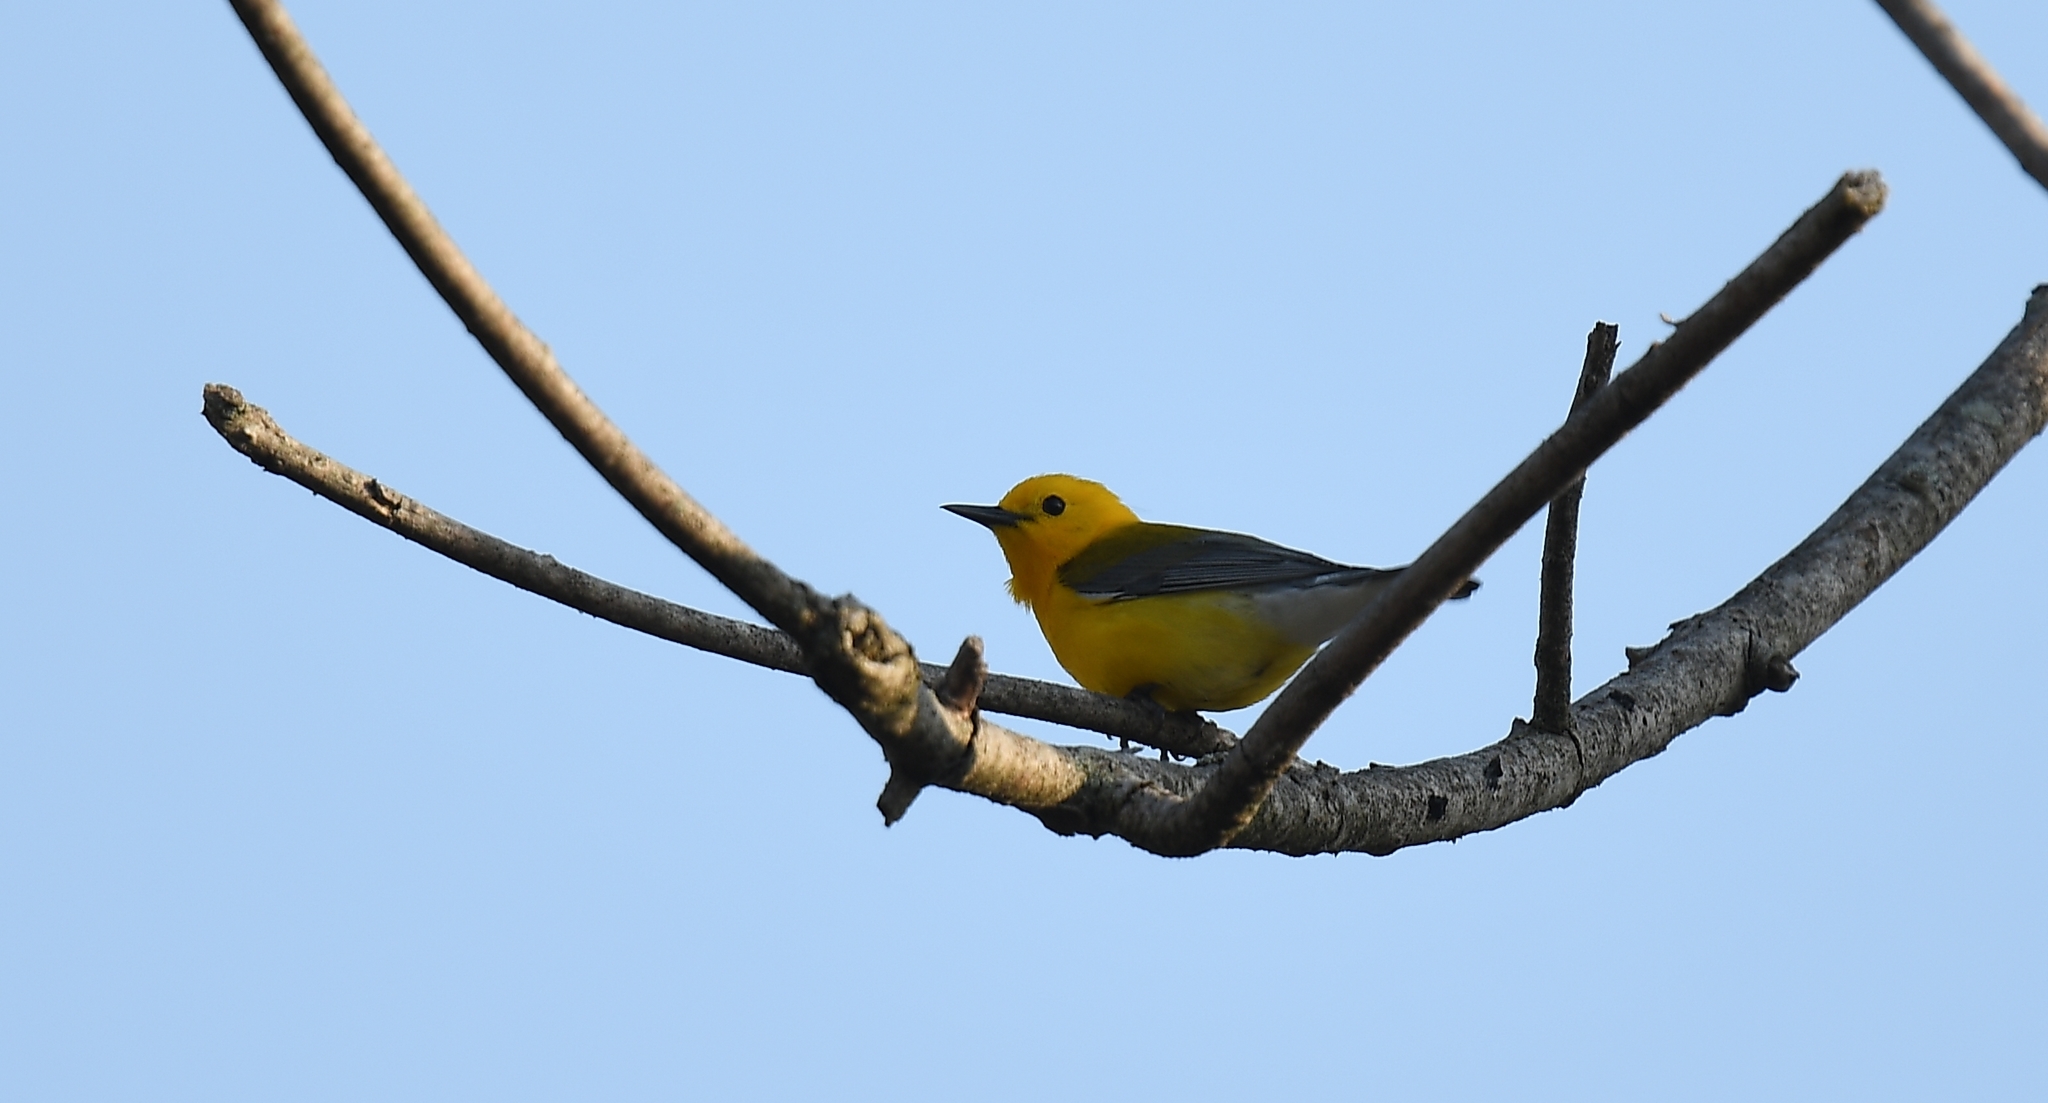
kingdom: Animalia
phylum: Chordata
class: Aves
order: Passeriformes
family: Parulidae
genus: Protonotaria
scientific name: Protonotaria citrea
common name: Prothonotary warbler
